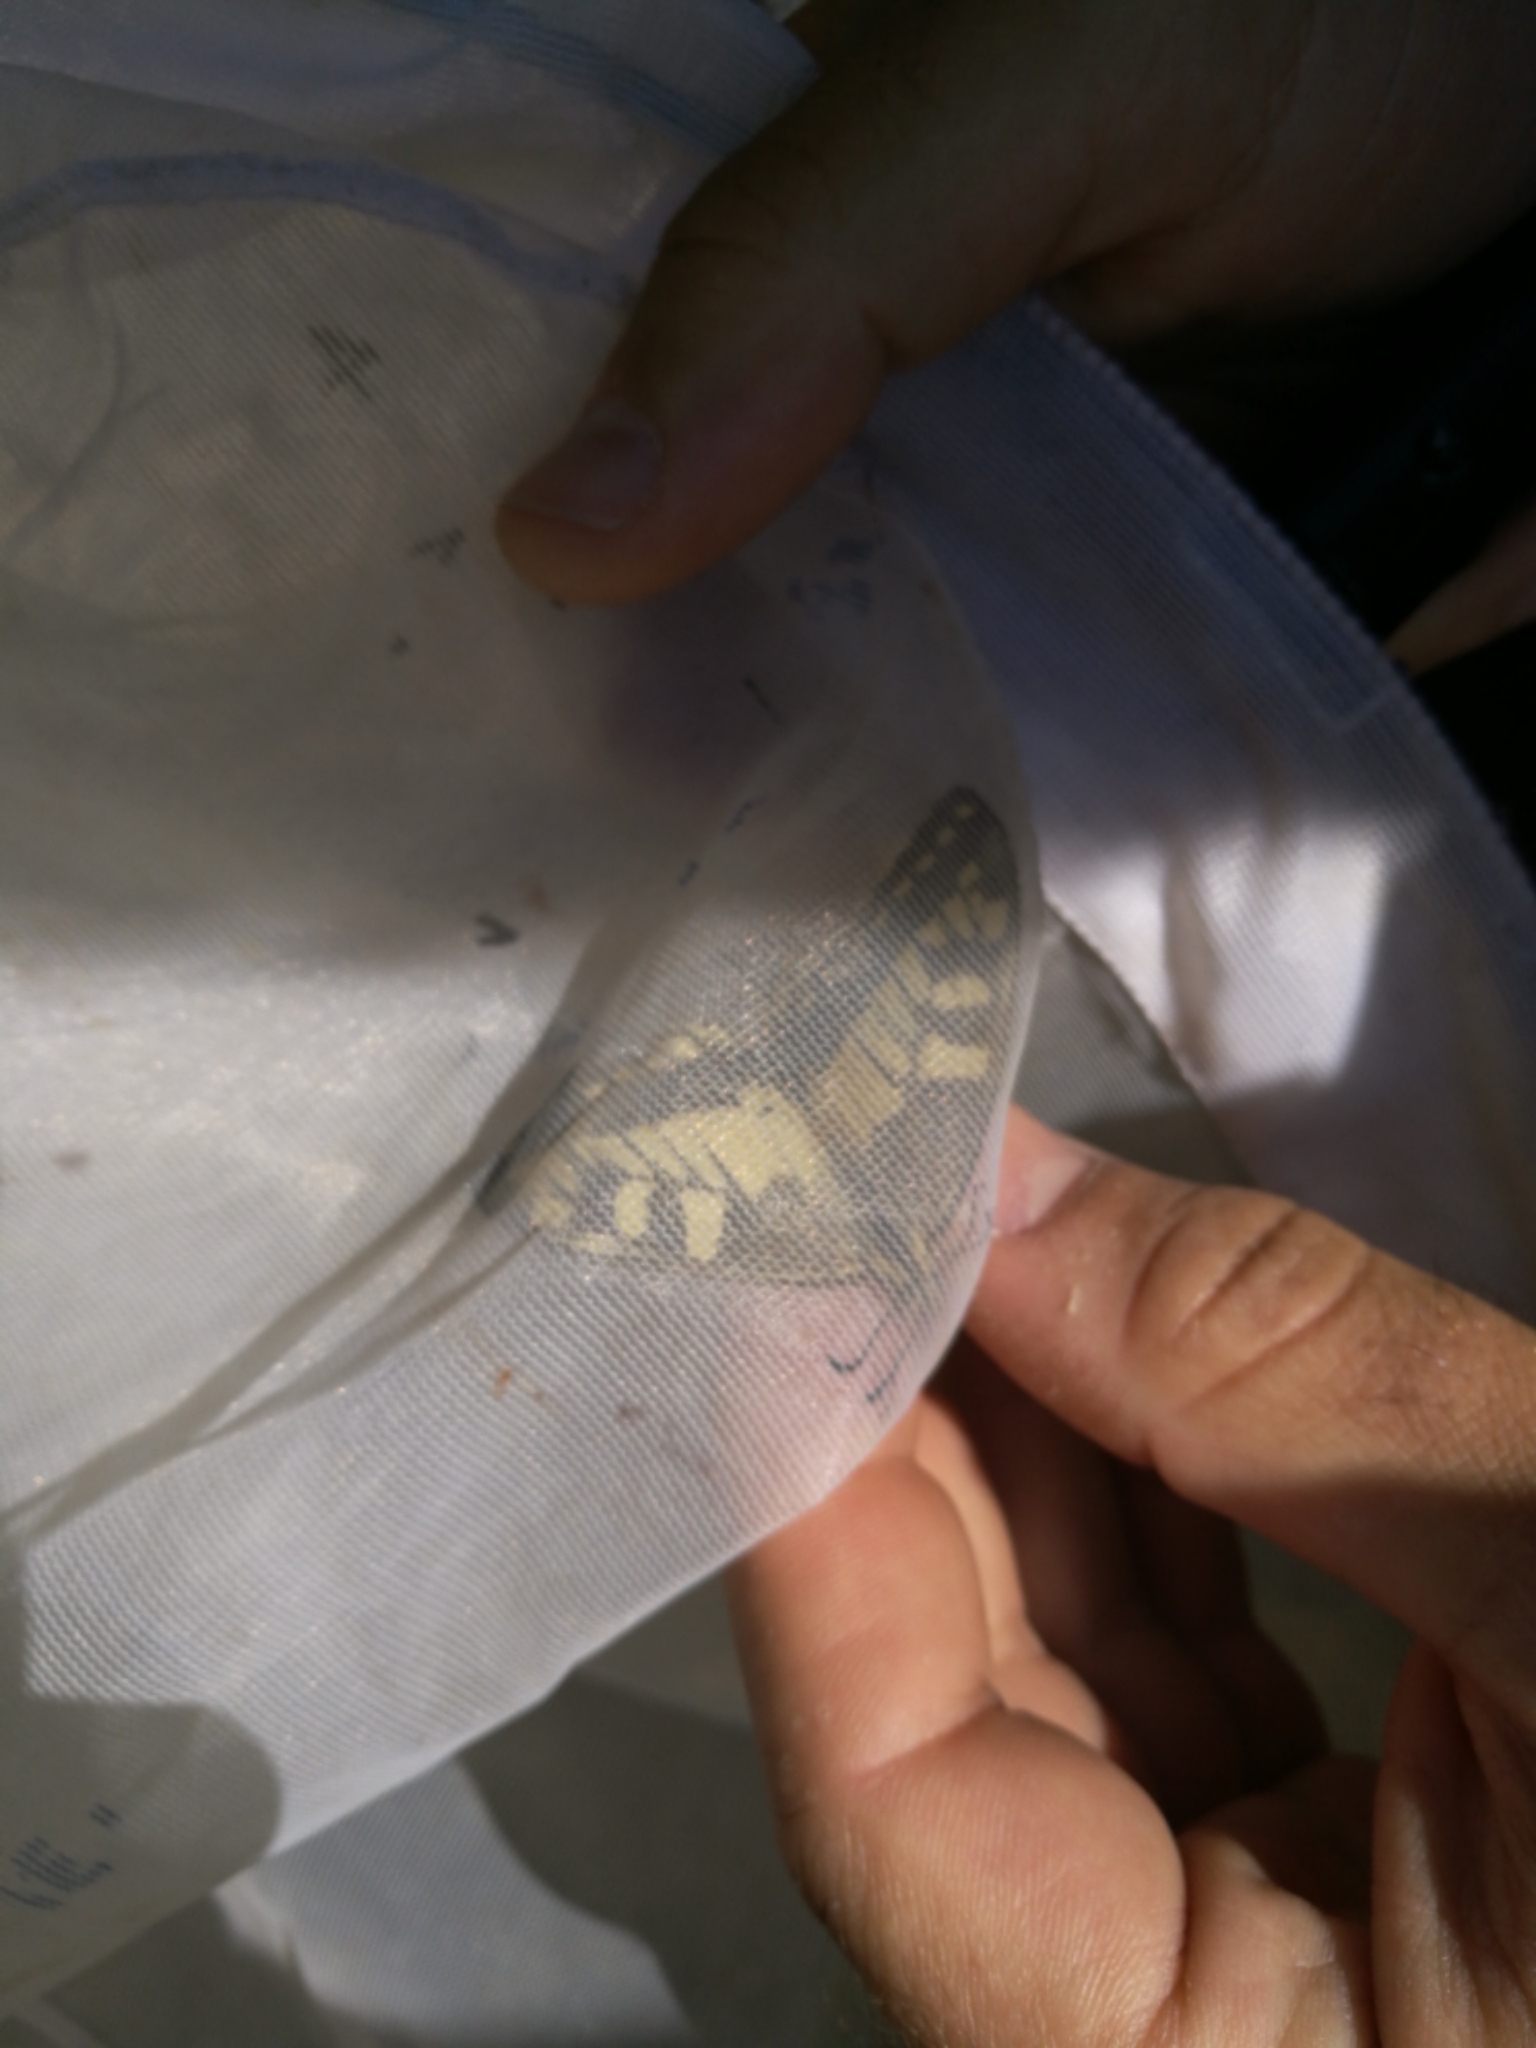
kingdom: Animalia
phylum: Arthropoda
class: Insecta
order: Lepidoptera
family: Papilionidae
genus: Papilio
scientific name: Papilio machaon
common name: Swallowtail
